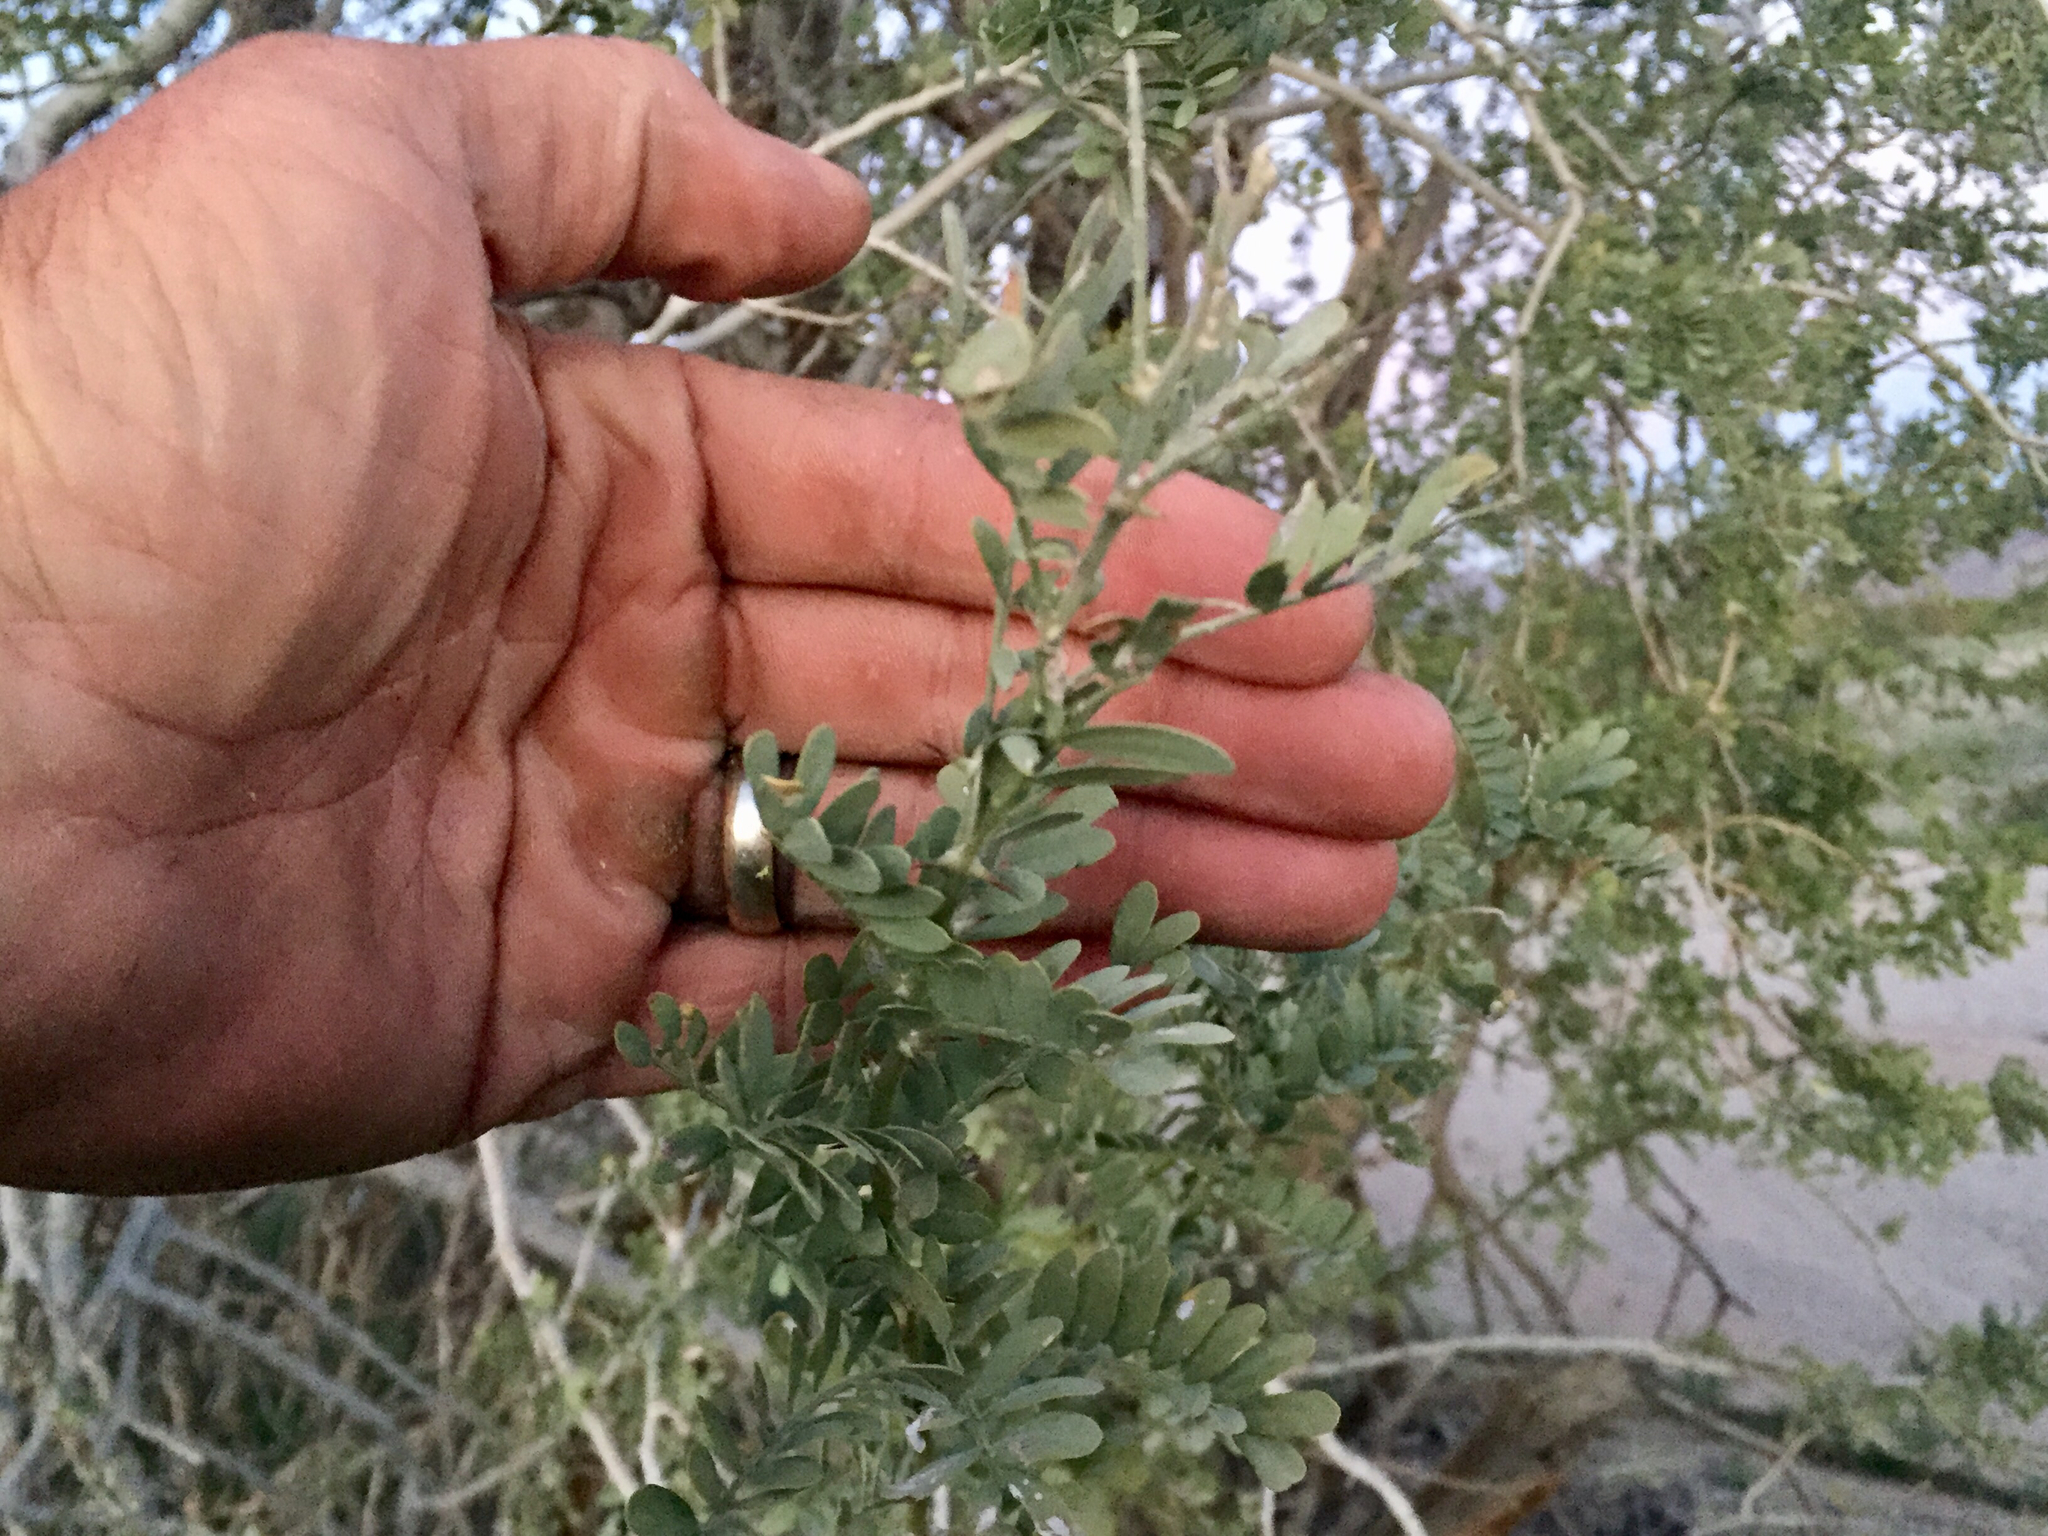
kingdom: Plantae
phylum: Tracheophyta
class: Magnoliopsida
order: Fabales
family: Fabaceae
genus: Olneya
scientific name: Olneya tesota
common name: Desert ironwood
